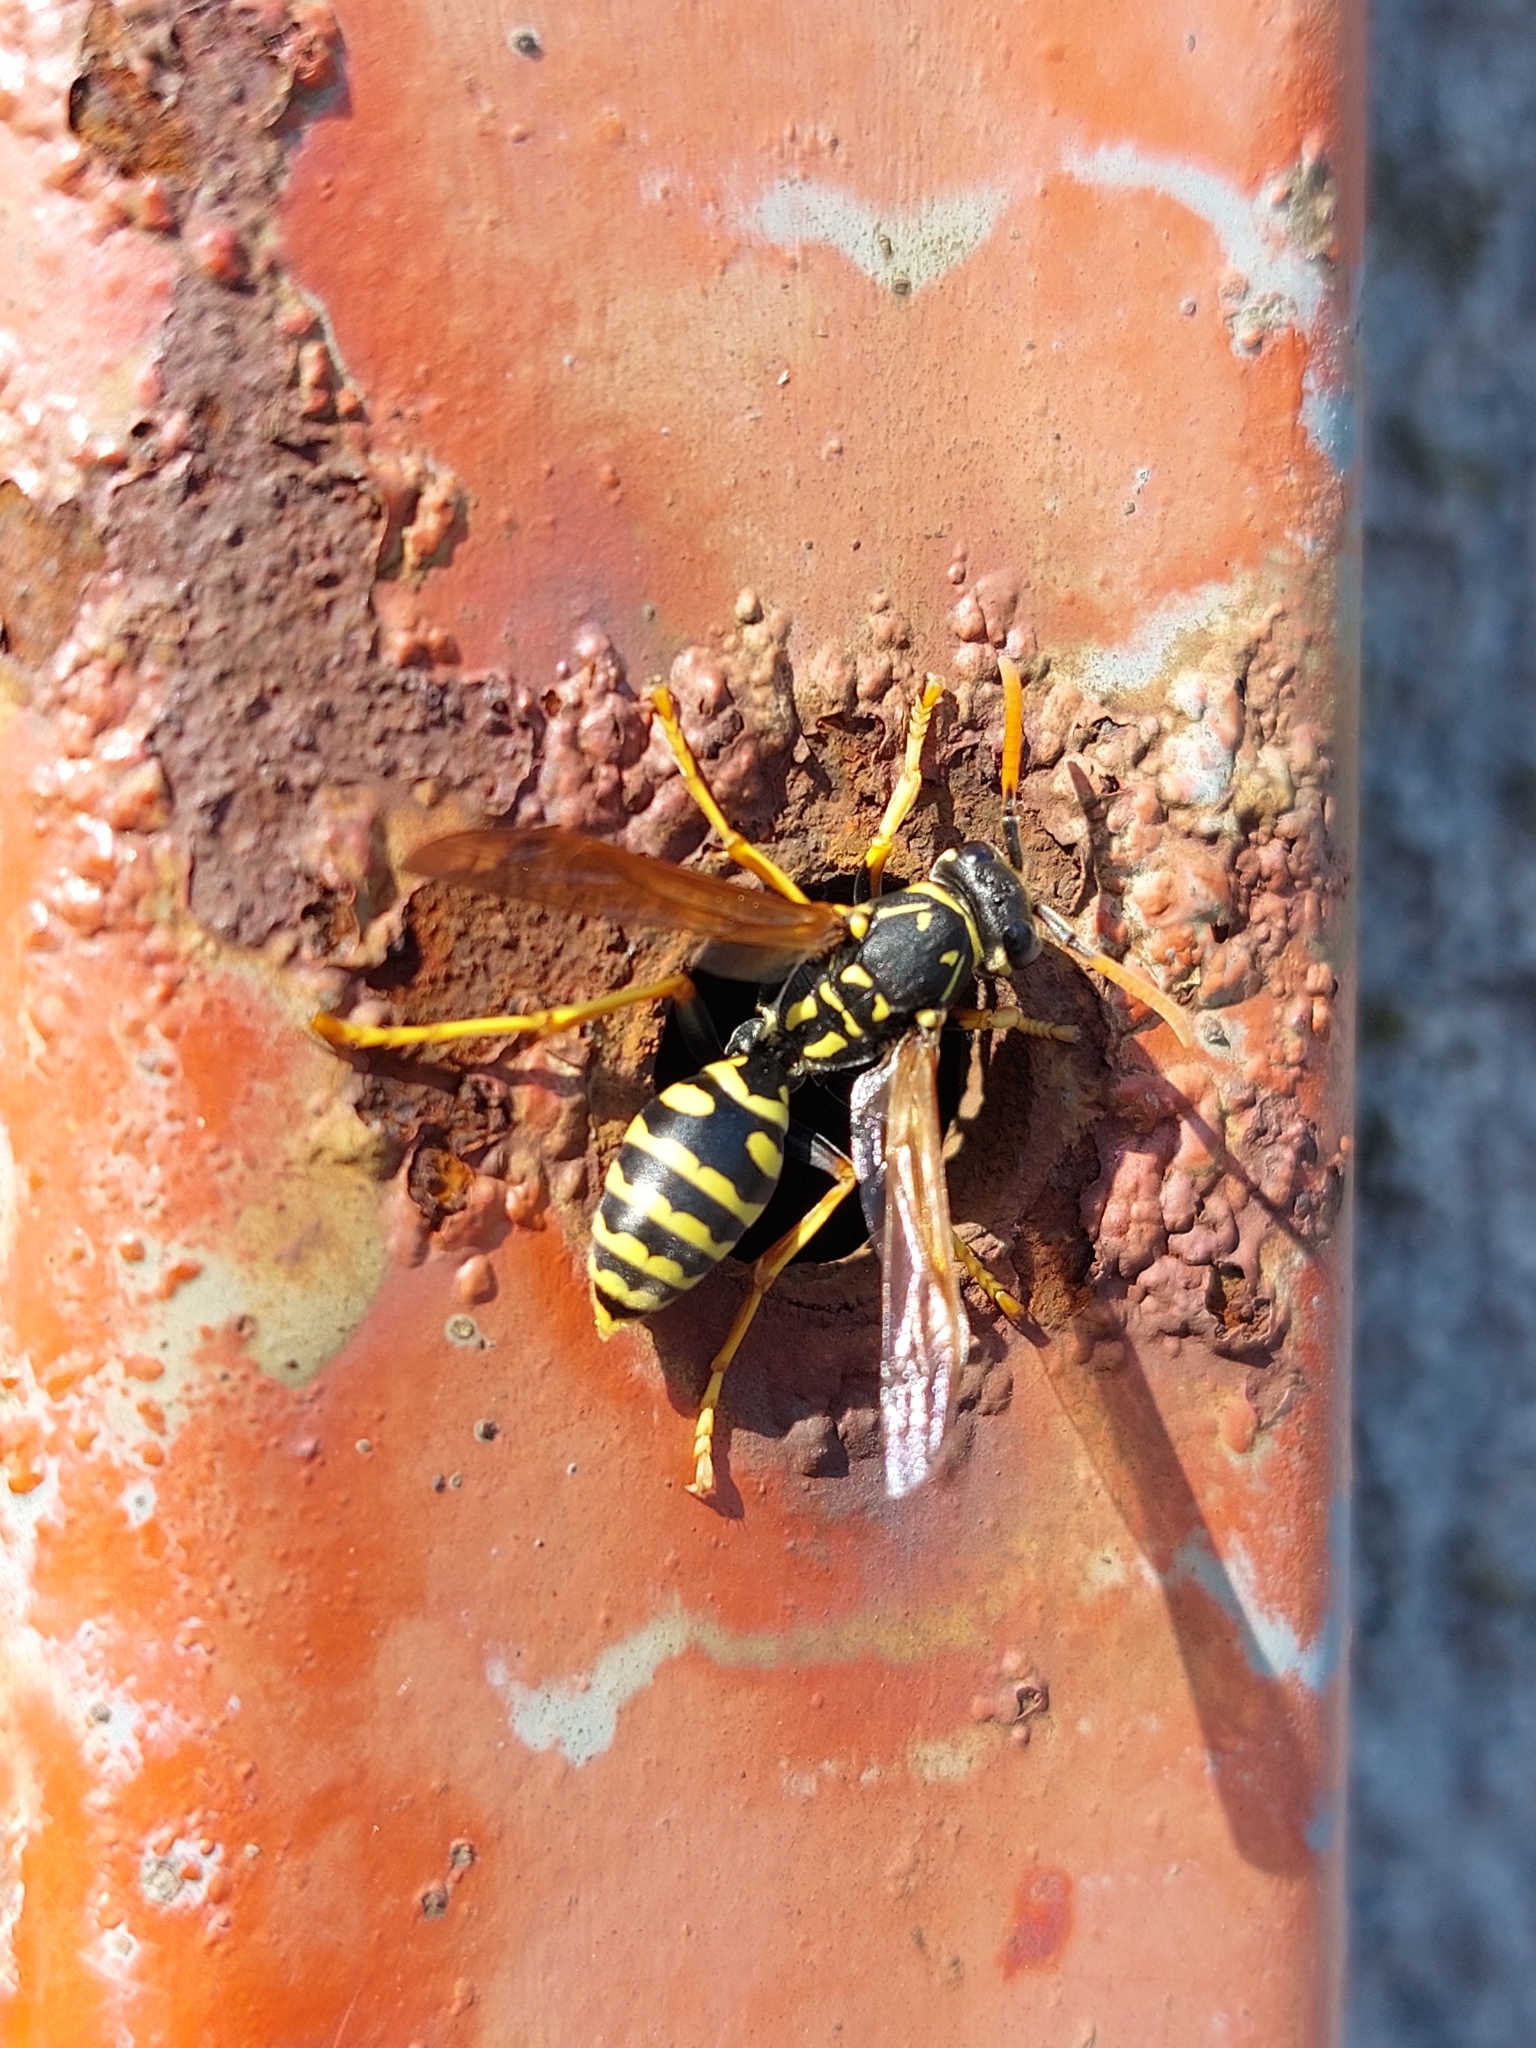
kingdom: Animalia
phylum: Arthropoda
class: Insecta
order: Hymenoptera
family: Eumenidae
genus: Polistes
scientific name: Polistes dominula
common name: Paper wasp
